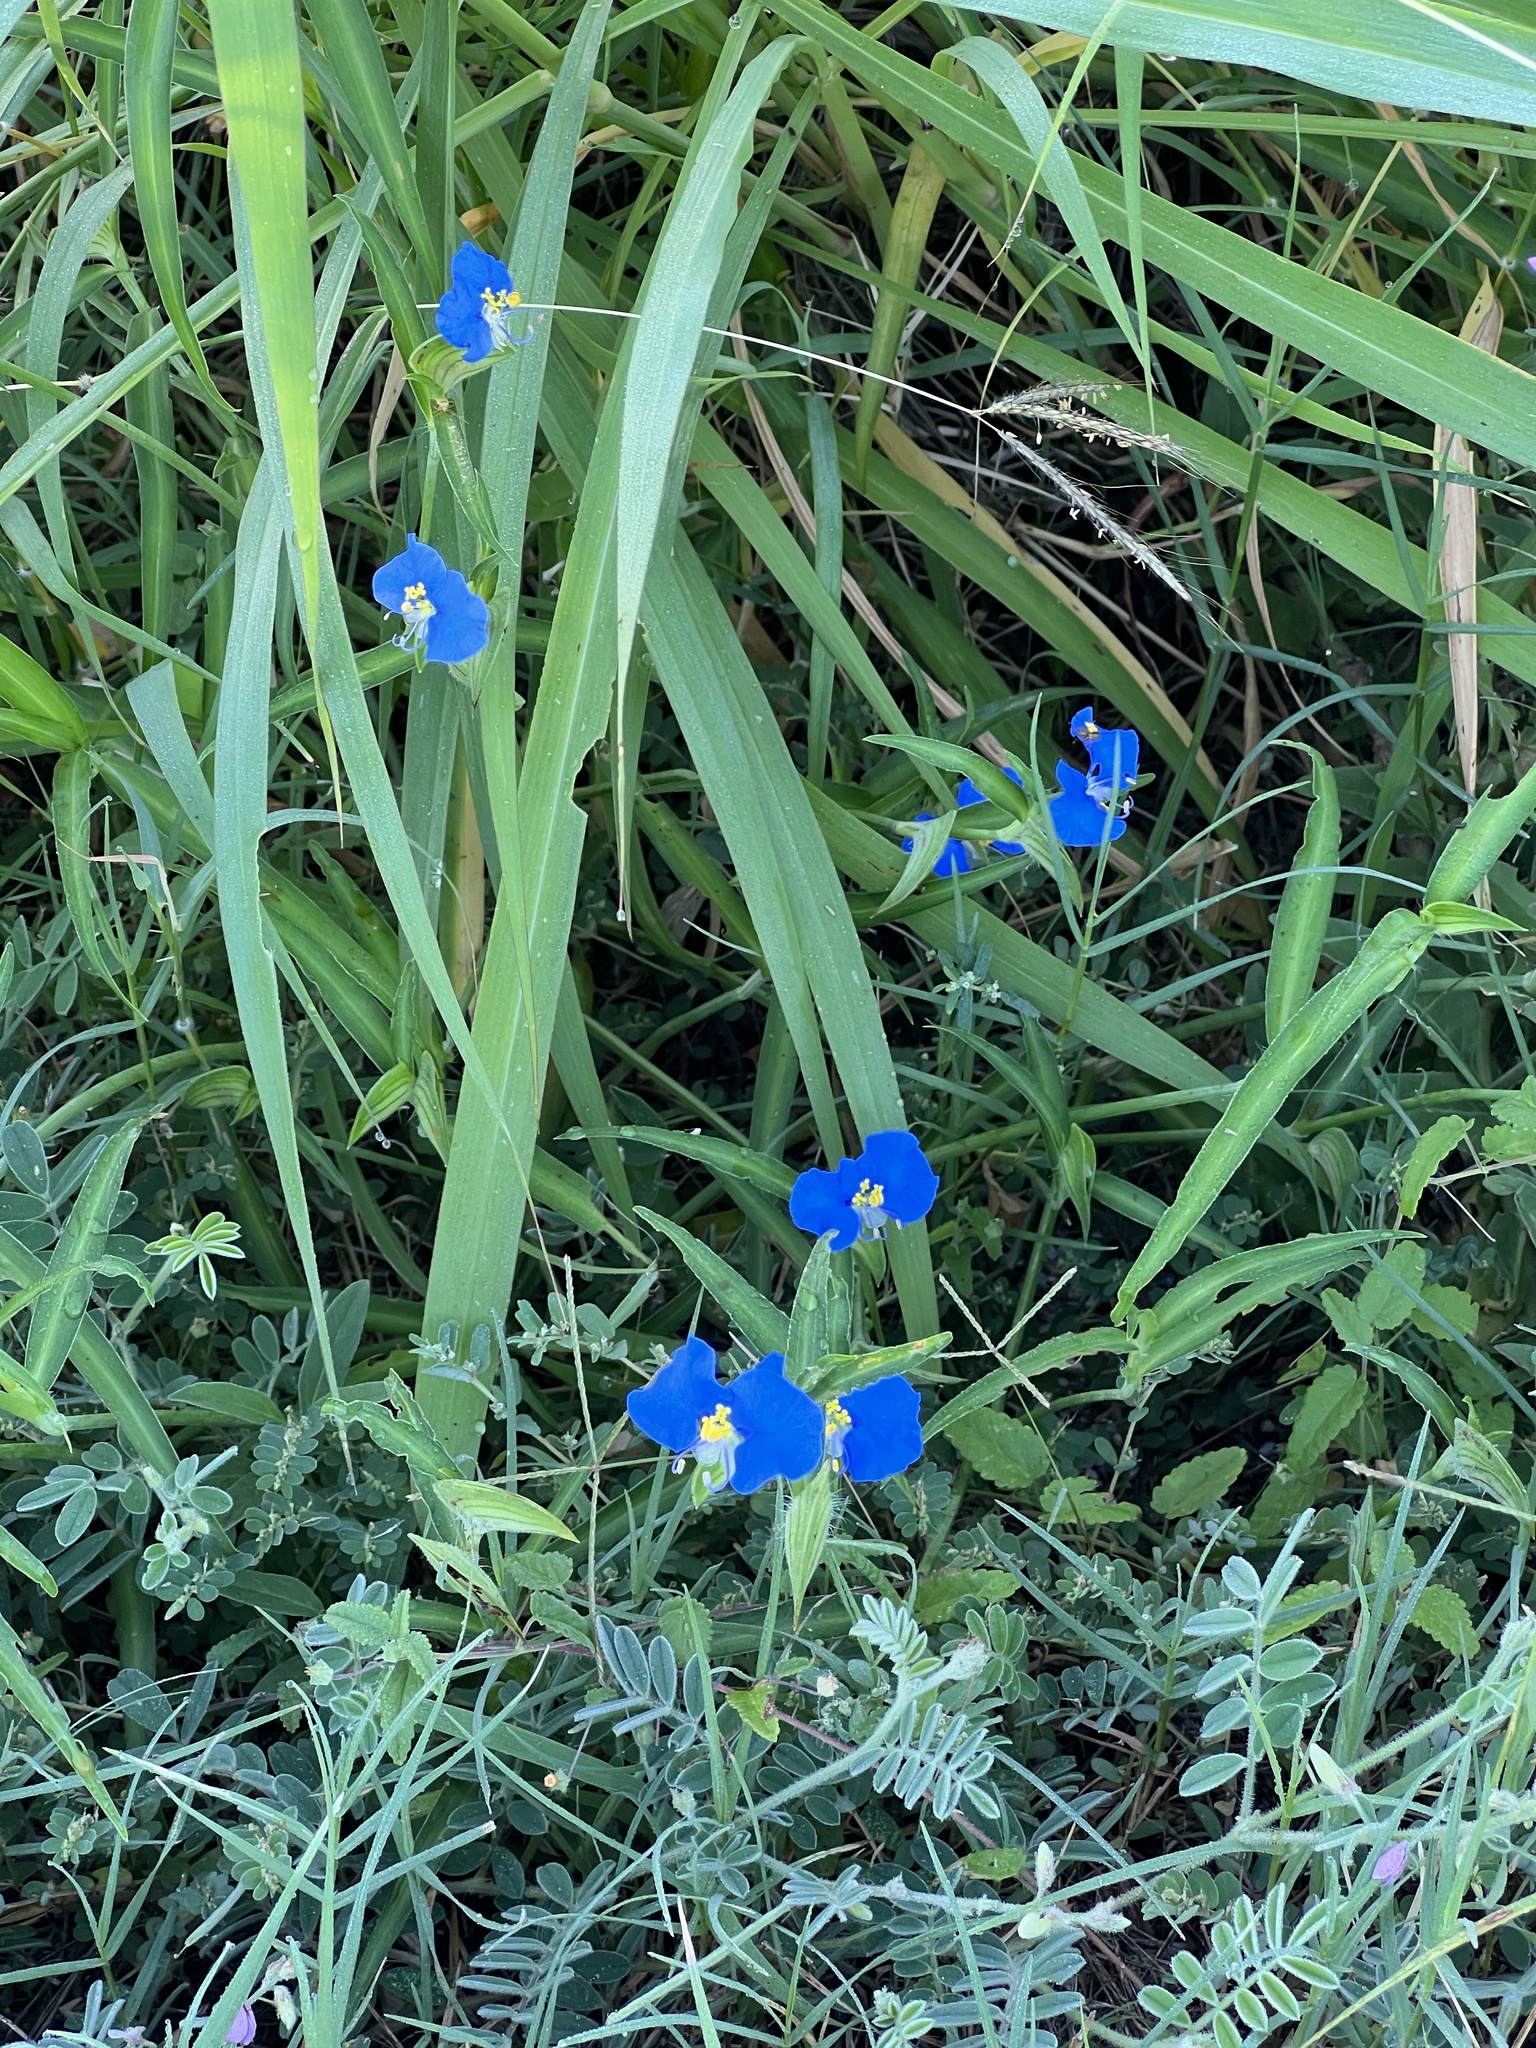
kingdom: Plantae
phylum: Tracheophyta
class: Liliopsida
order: Commelinales
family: Commelinaceae
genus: Commelina
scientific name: Commelina erecta
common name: Blousel blommetjie
